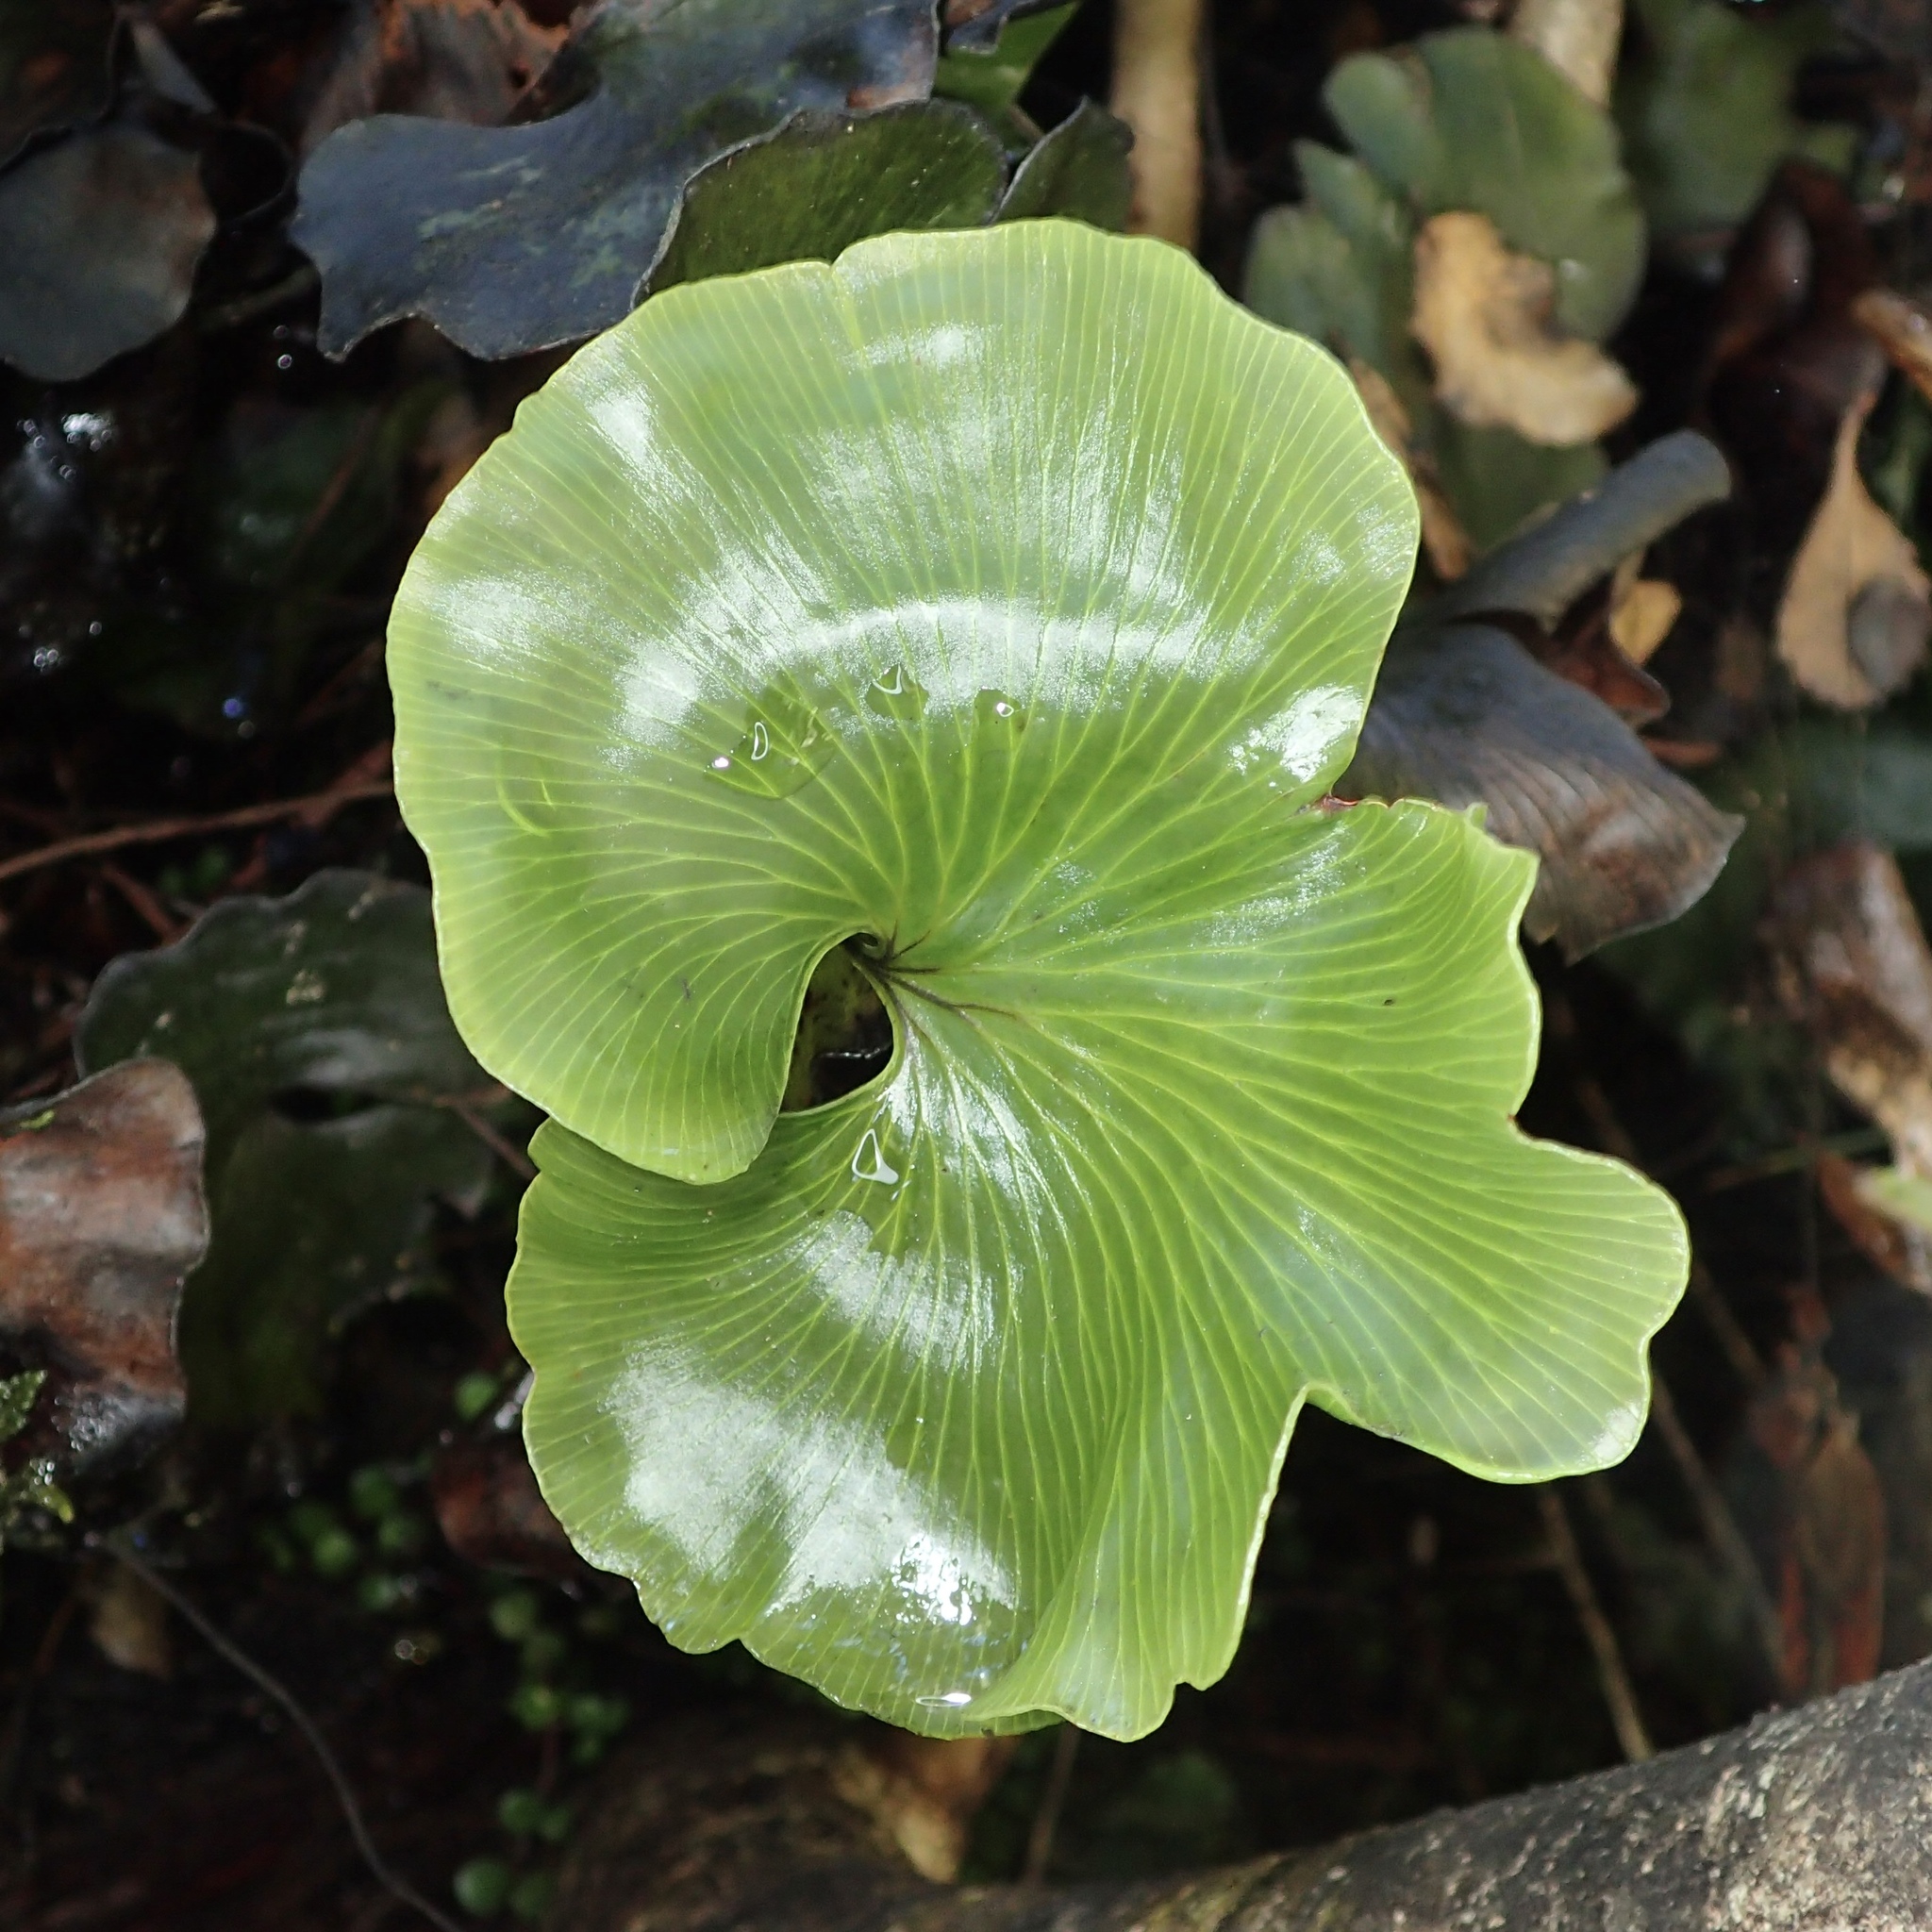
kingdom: Plantae
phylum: Tracheophyta
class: Polypodiopsida
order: Hymenophyllales
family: Hymenophyllaceae
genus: Hymenophyllum
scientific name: Hymenophyllum nephrophyllum
